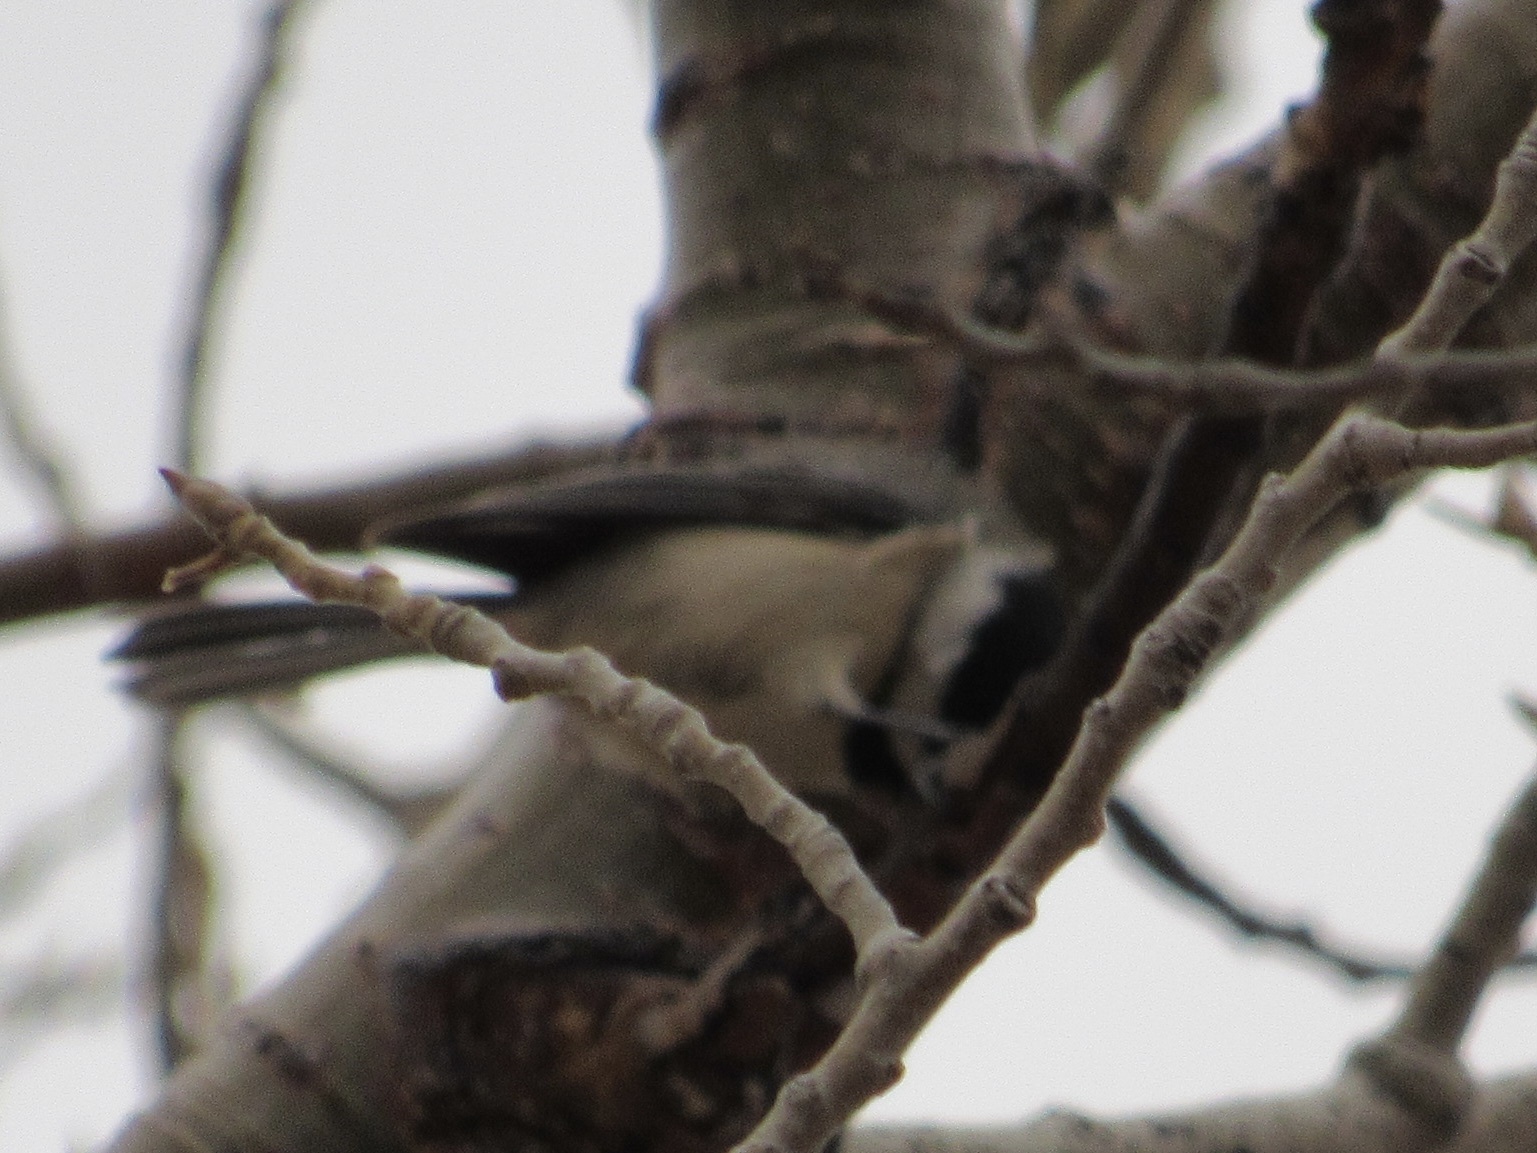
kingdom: Animalia
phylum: Chordata
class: Aves
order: Passeriformes
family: Paridae
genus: Poecile
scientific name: Poecile carolinensis
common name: Carolina chickadee
